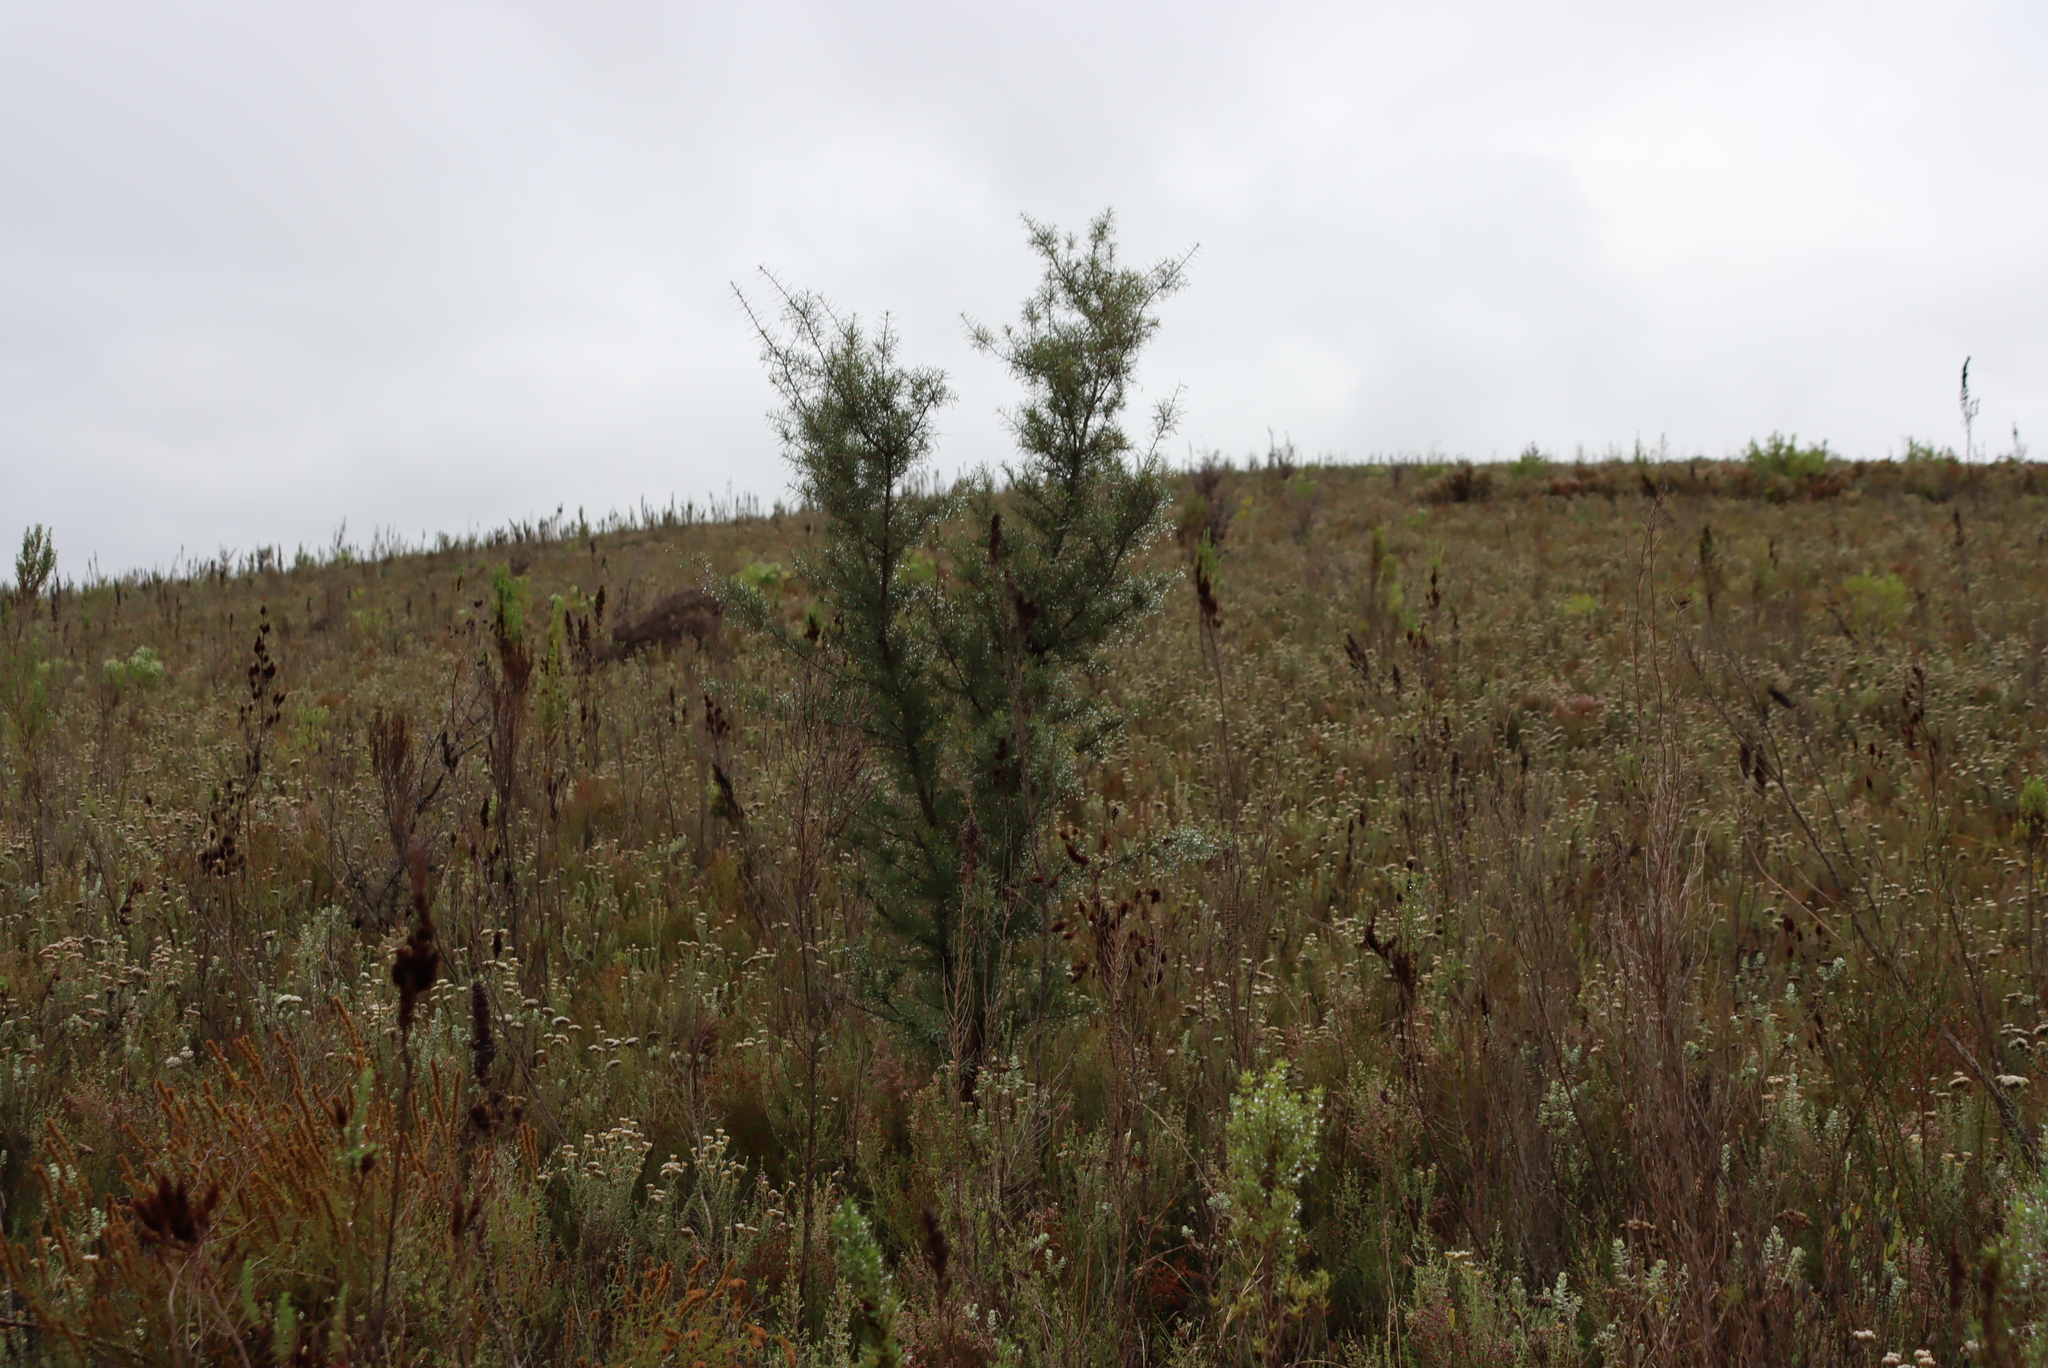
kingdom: Plantae
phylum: Tracheophyta
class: Magnoliopsida
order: Proteales
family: Proteaceae
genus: Hakea
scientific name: Hakea sericea
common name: Needle bush
